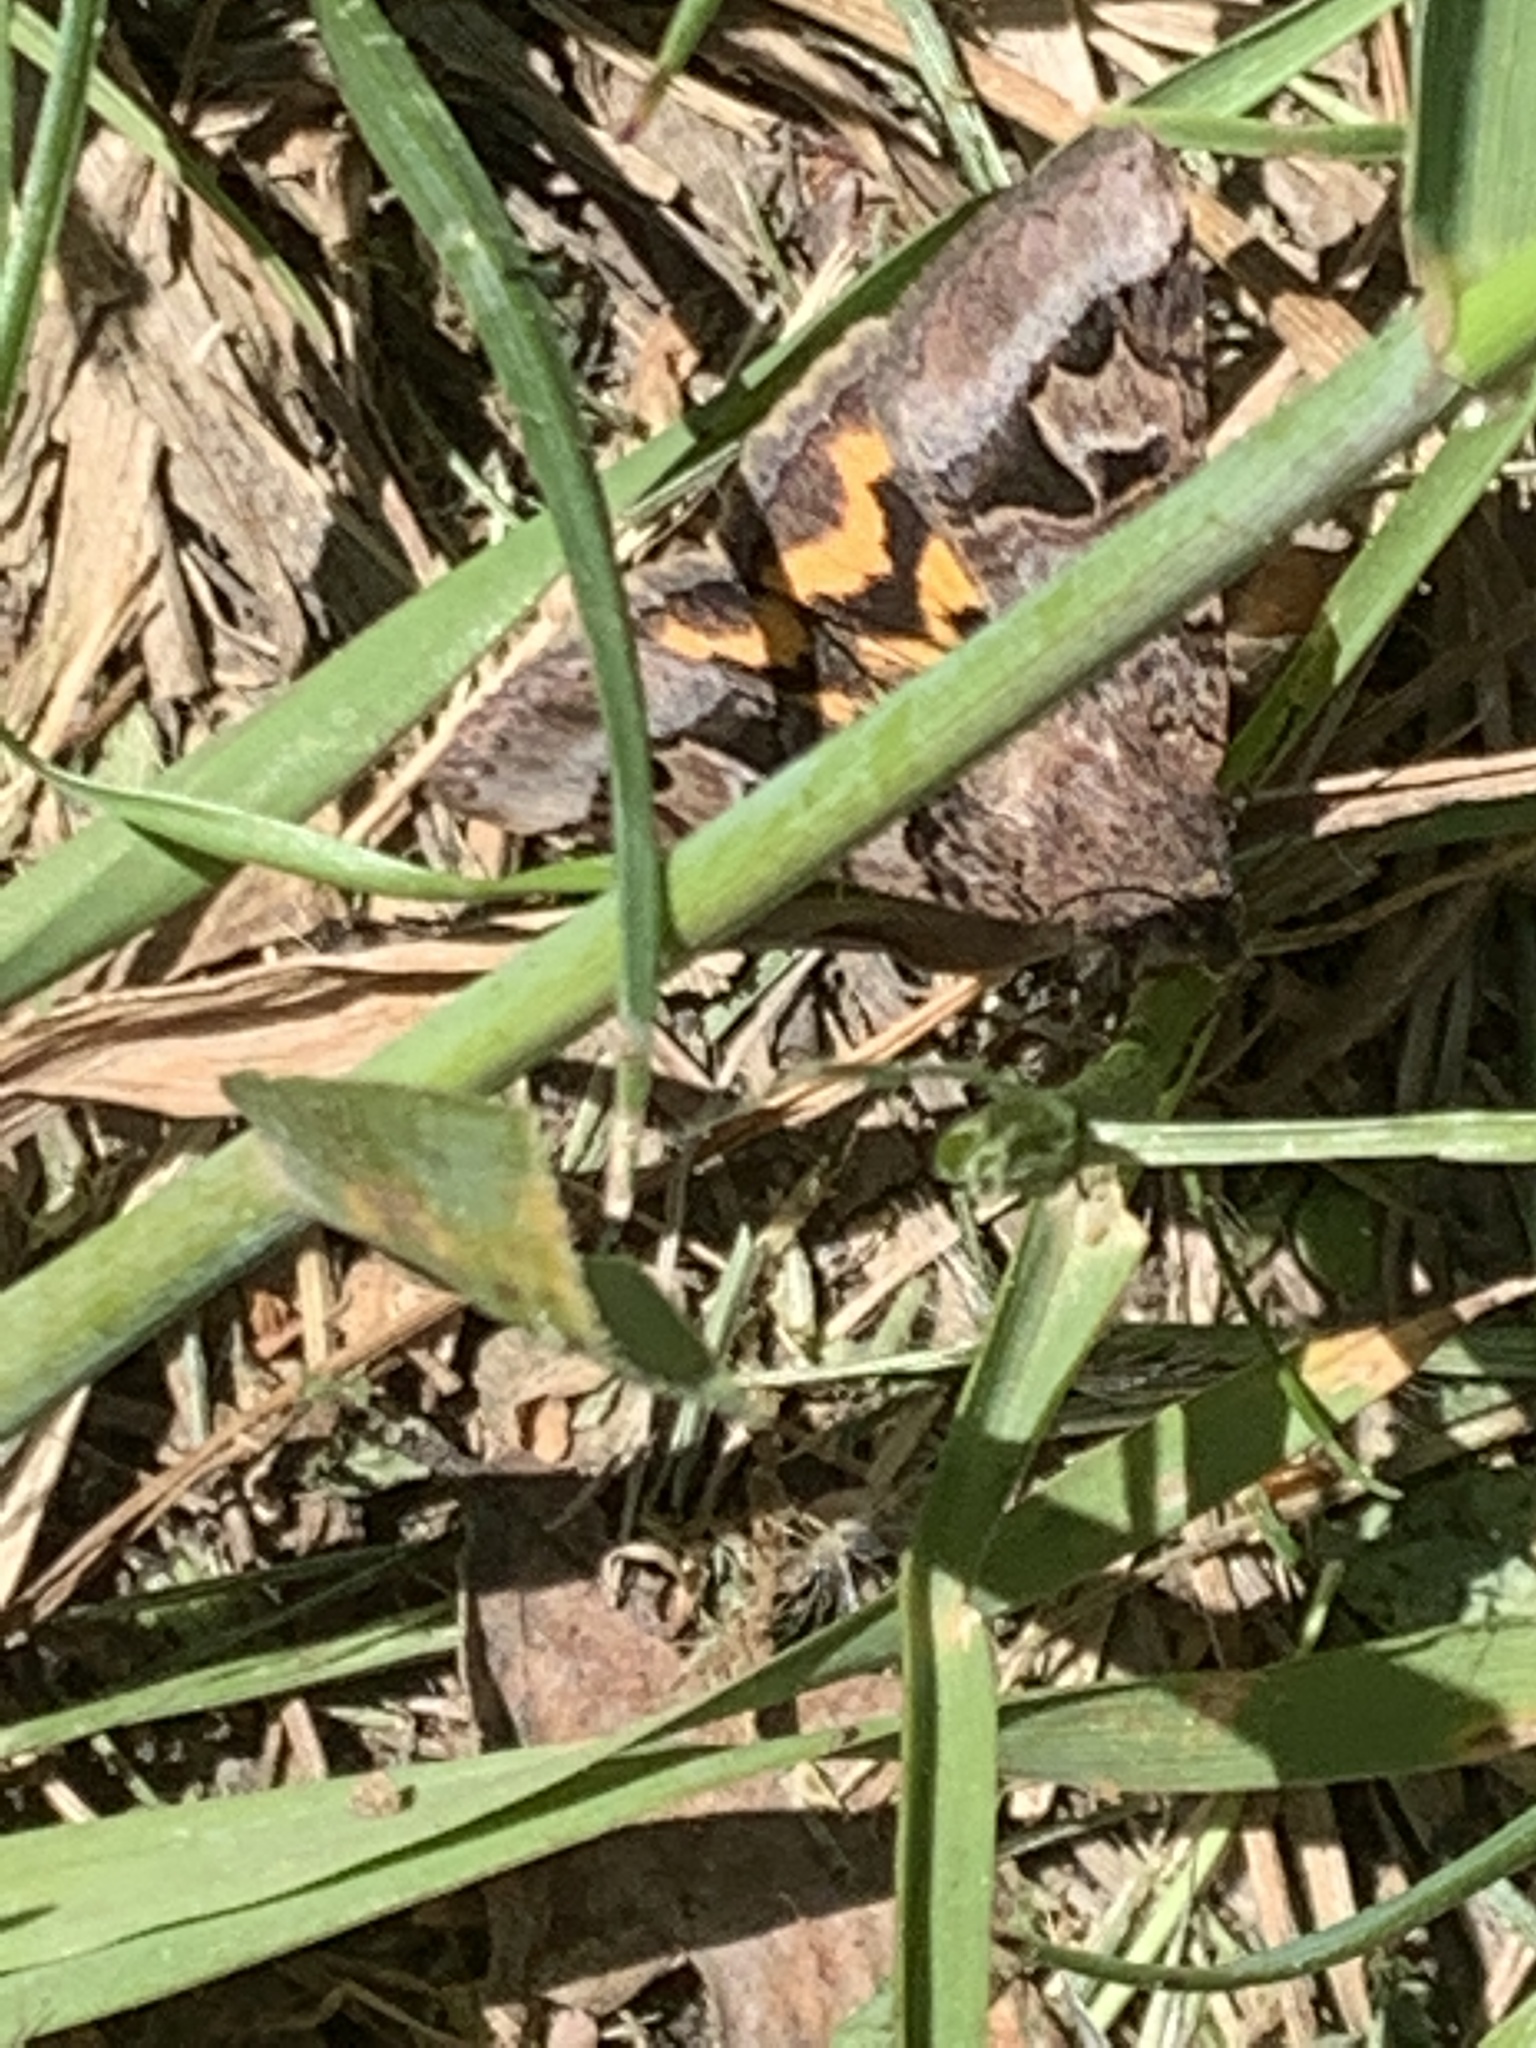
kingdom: Animalia
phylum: Arthropoda
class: Insecta
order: Lepidoptera
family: Erebidae
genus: Drasteria
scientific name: Drasteria adumbrata
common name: Shadowy arches
